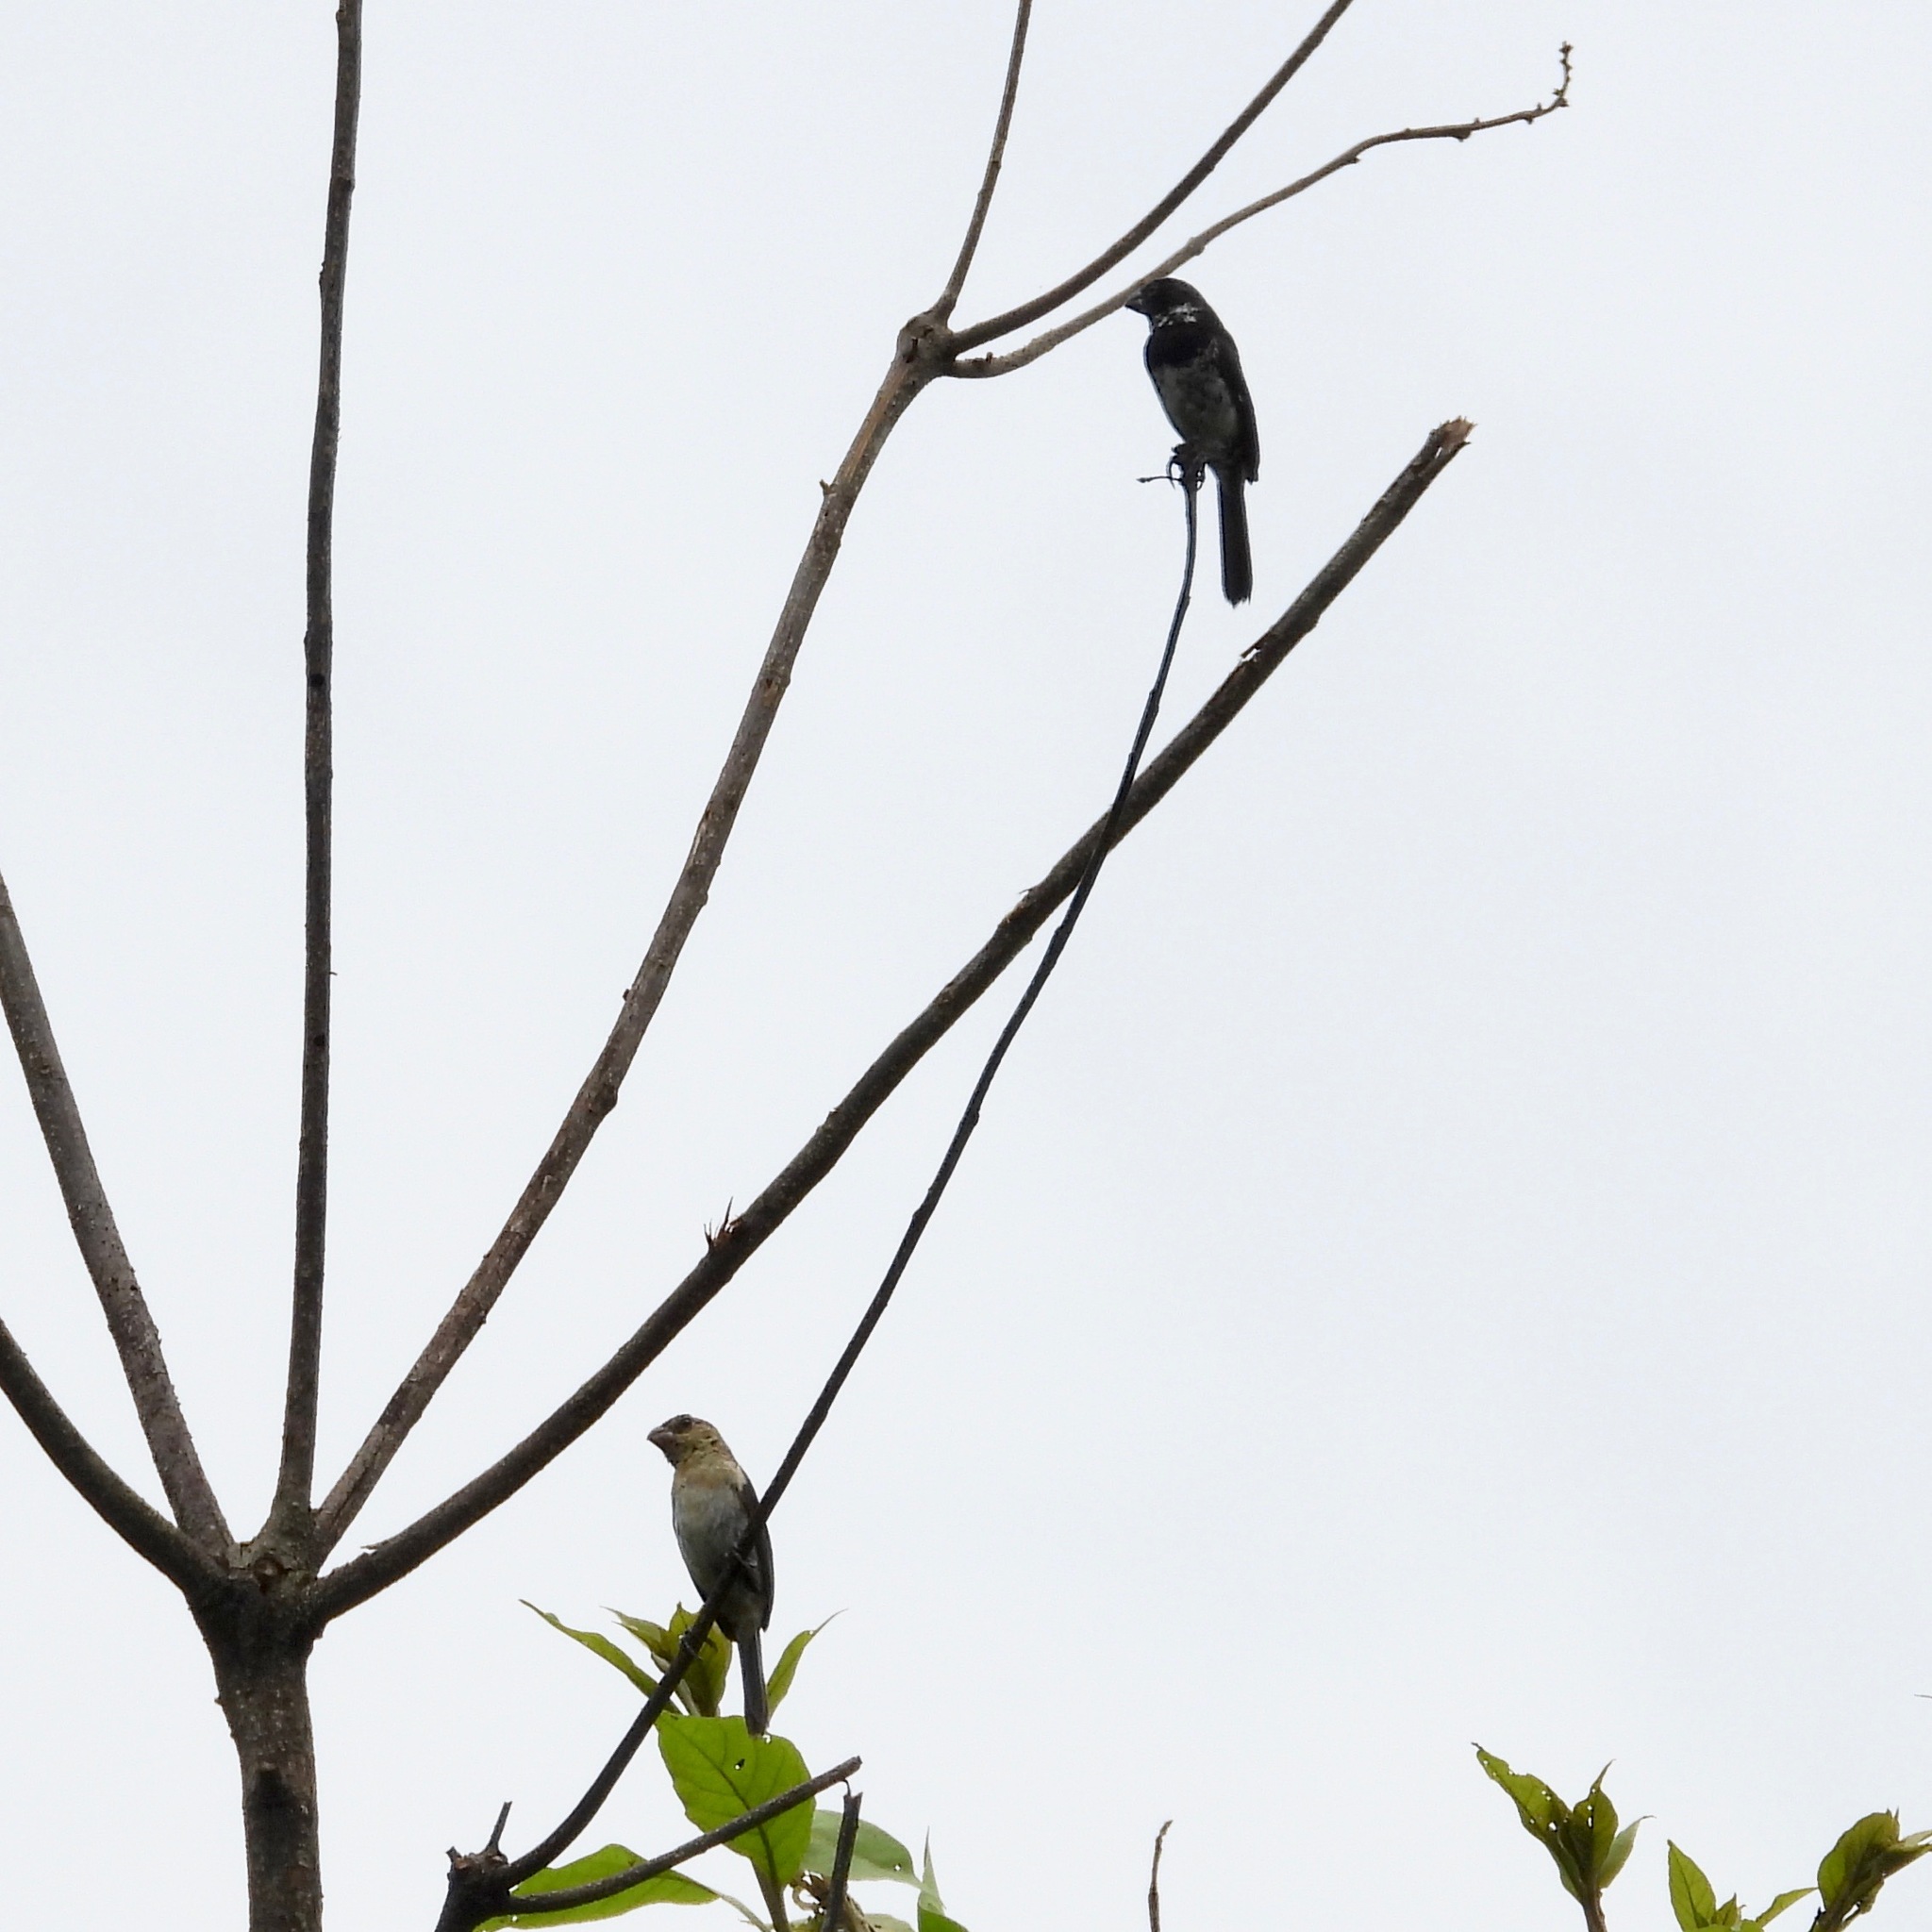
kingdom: Animalia
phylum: Chordata
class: Aves
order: Passeriformes
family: Thraupidae
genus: Sporophila
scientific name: Sporophila morelleti
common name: Morelet's seedeater
